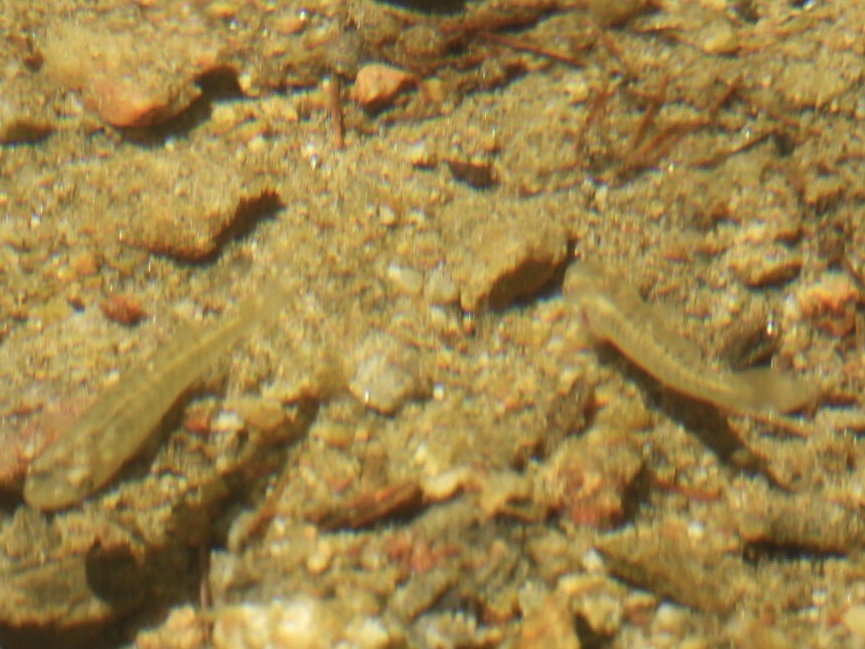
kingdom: Animalia
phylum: Chordata
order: Cyprinodontiformes
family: Fundulidae
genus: Fundulus
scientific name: Fundulus diaphanus
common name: Banded killifish
